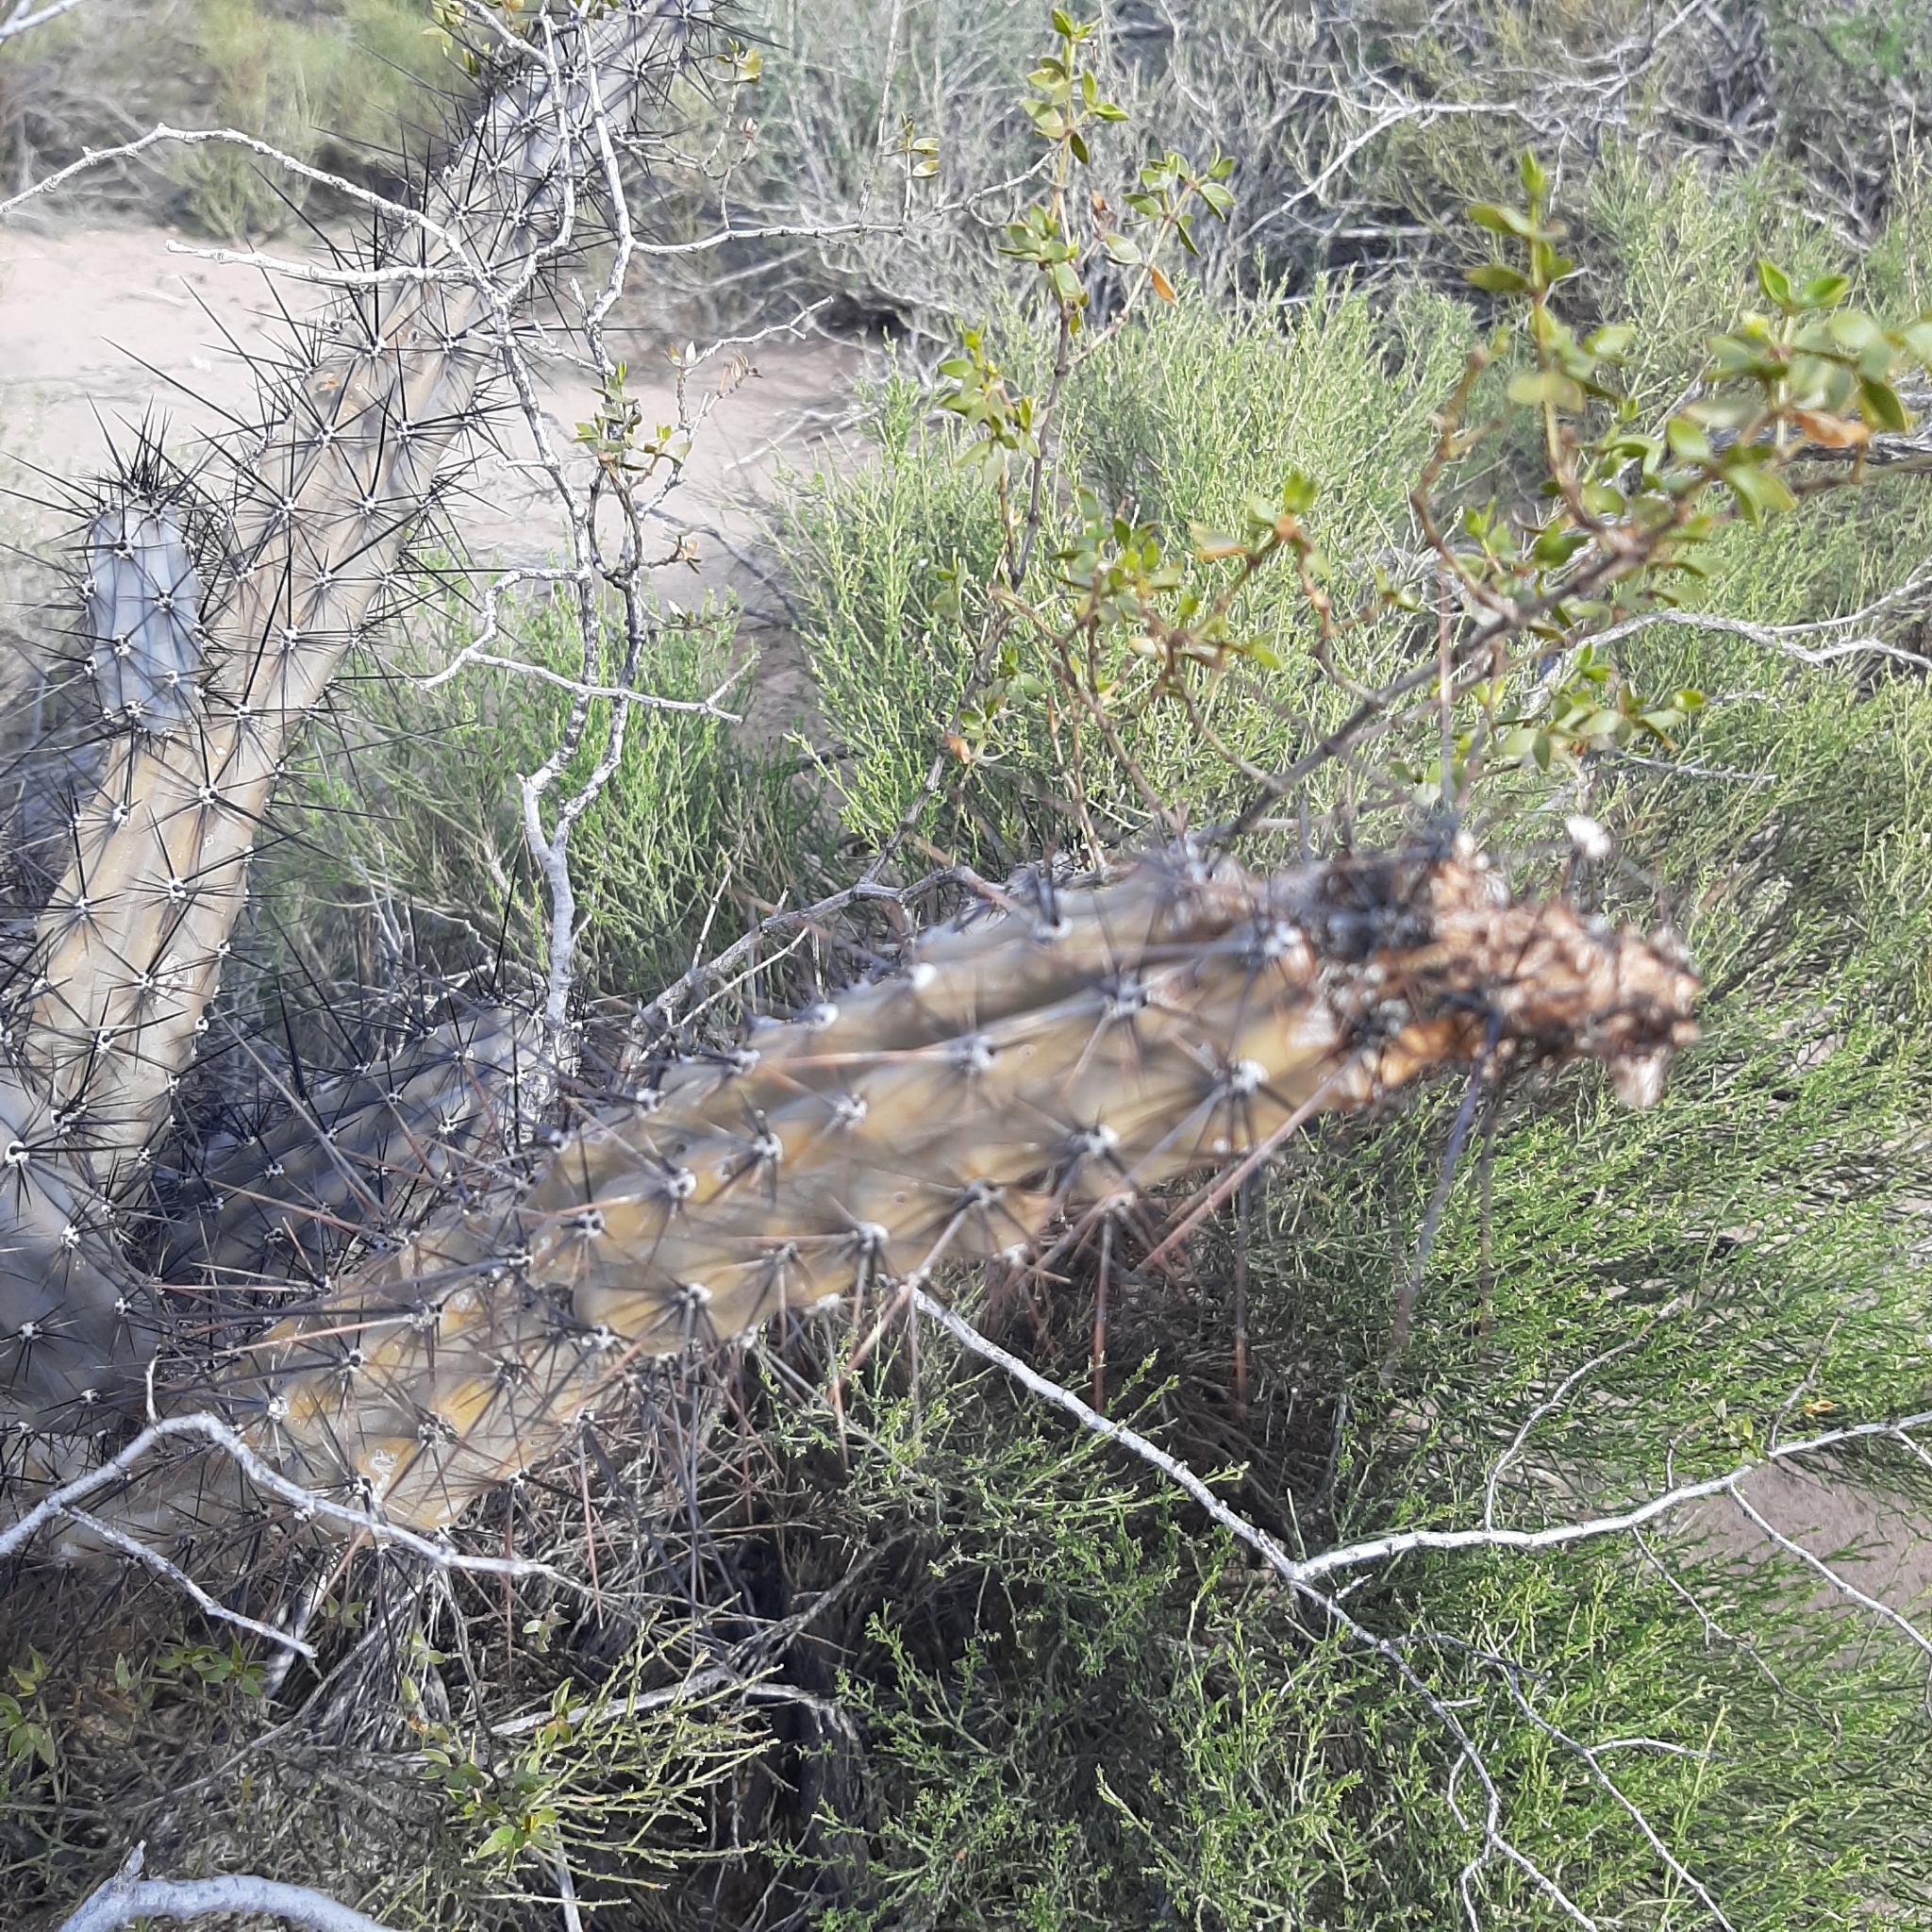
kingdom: Plantae
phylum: Tracheophyta
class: Magnoliopsida
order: Caryophyllales
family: Cactaceae
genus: Cereus
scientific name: Cereus aethiops
